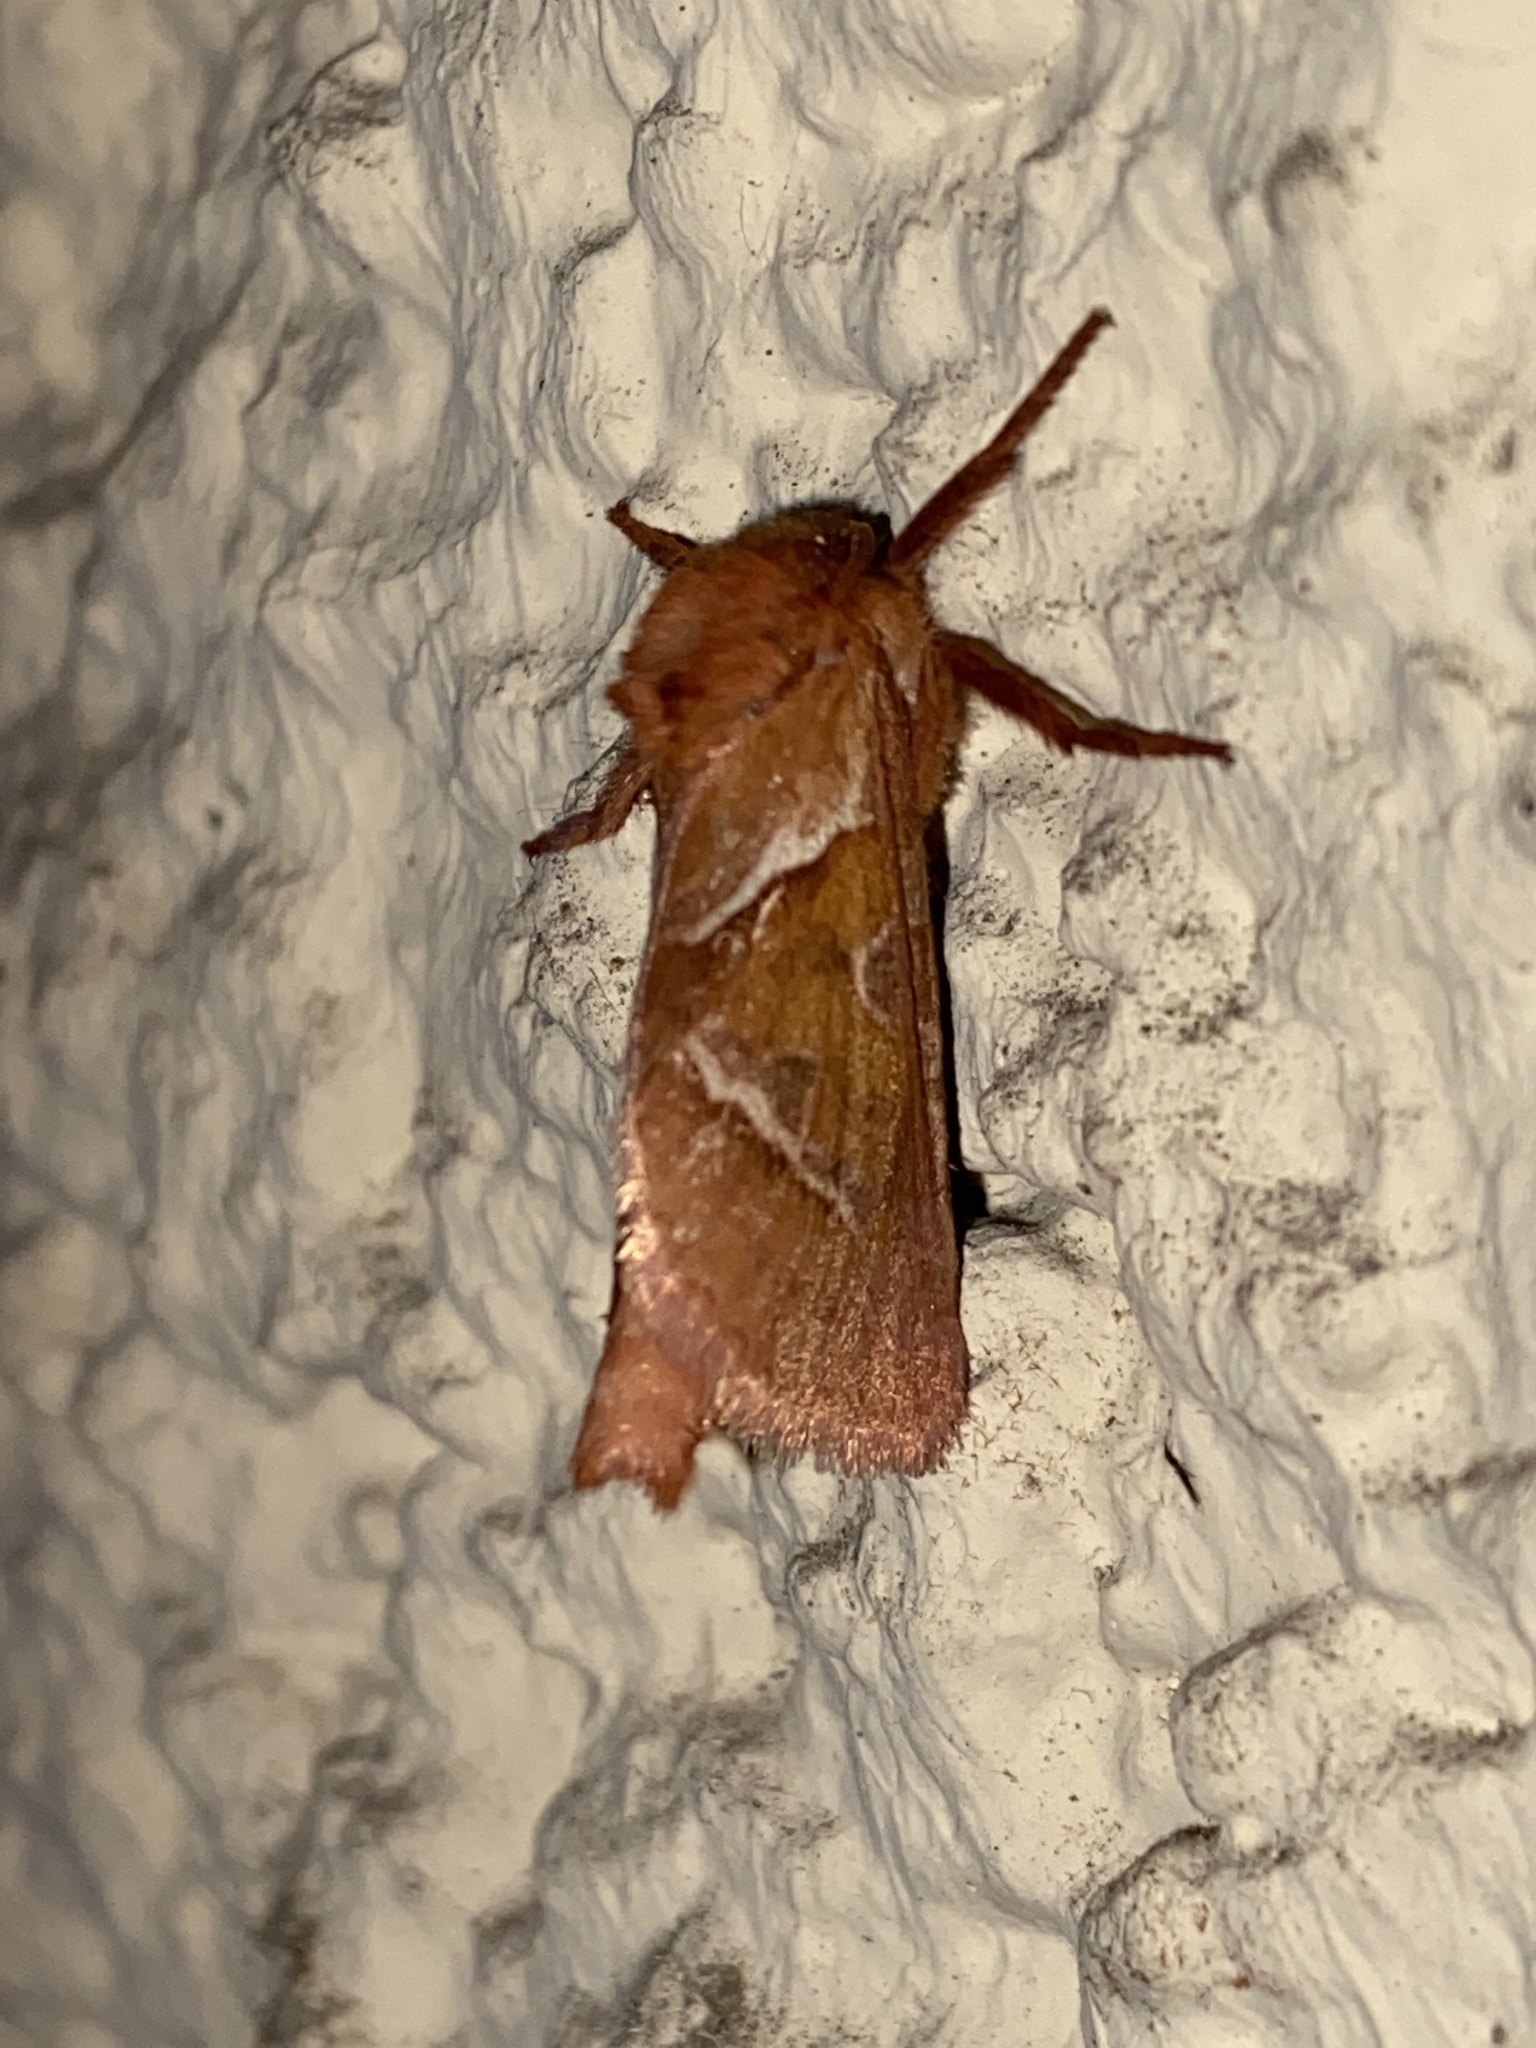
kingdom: Animalia
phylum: Arthropoda
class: Insecta
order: Lepidoptera
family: Hepialidae
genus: Triodia
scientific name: Triodia sylvina
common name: Orange swift
